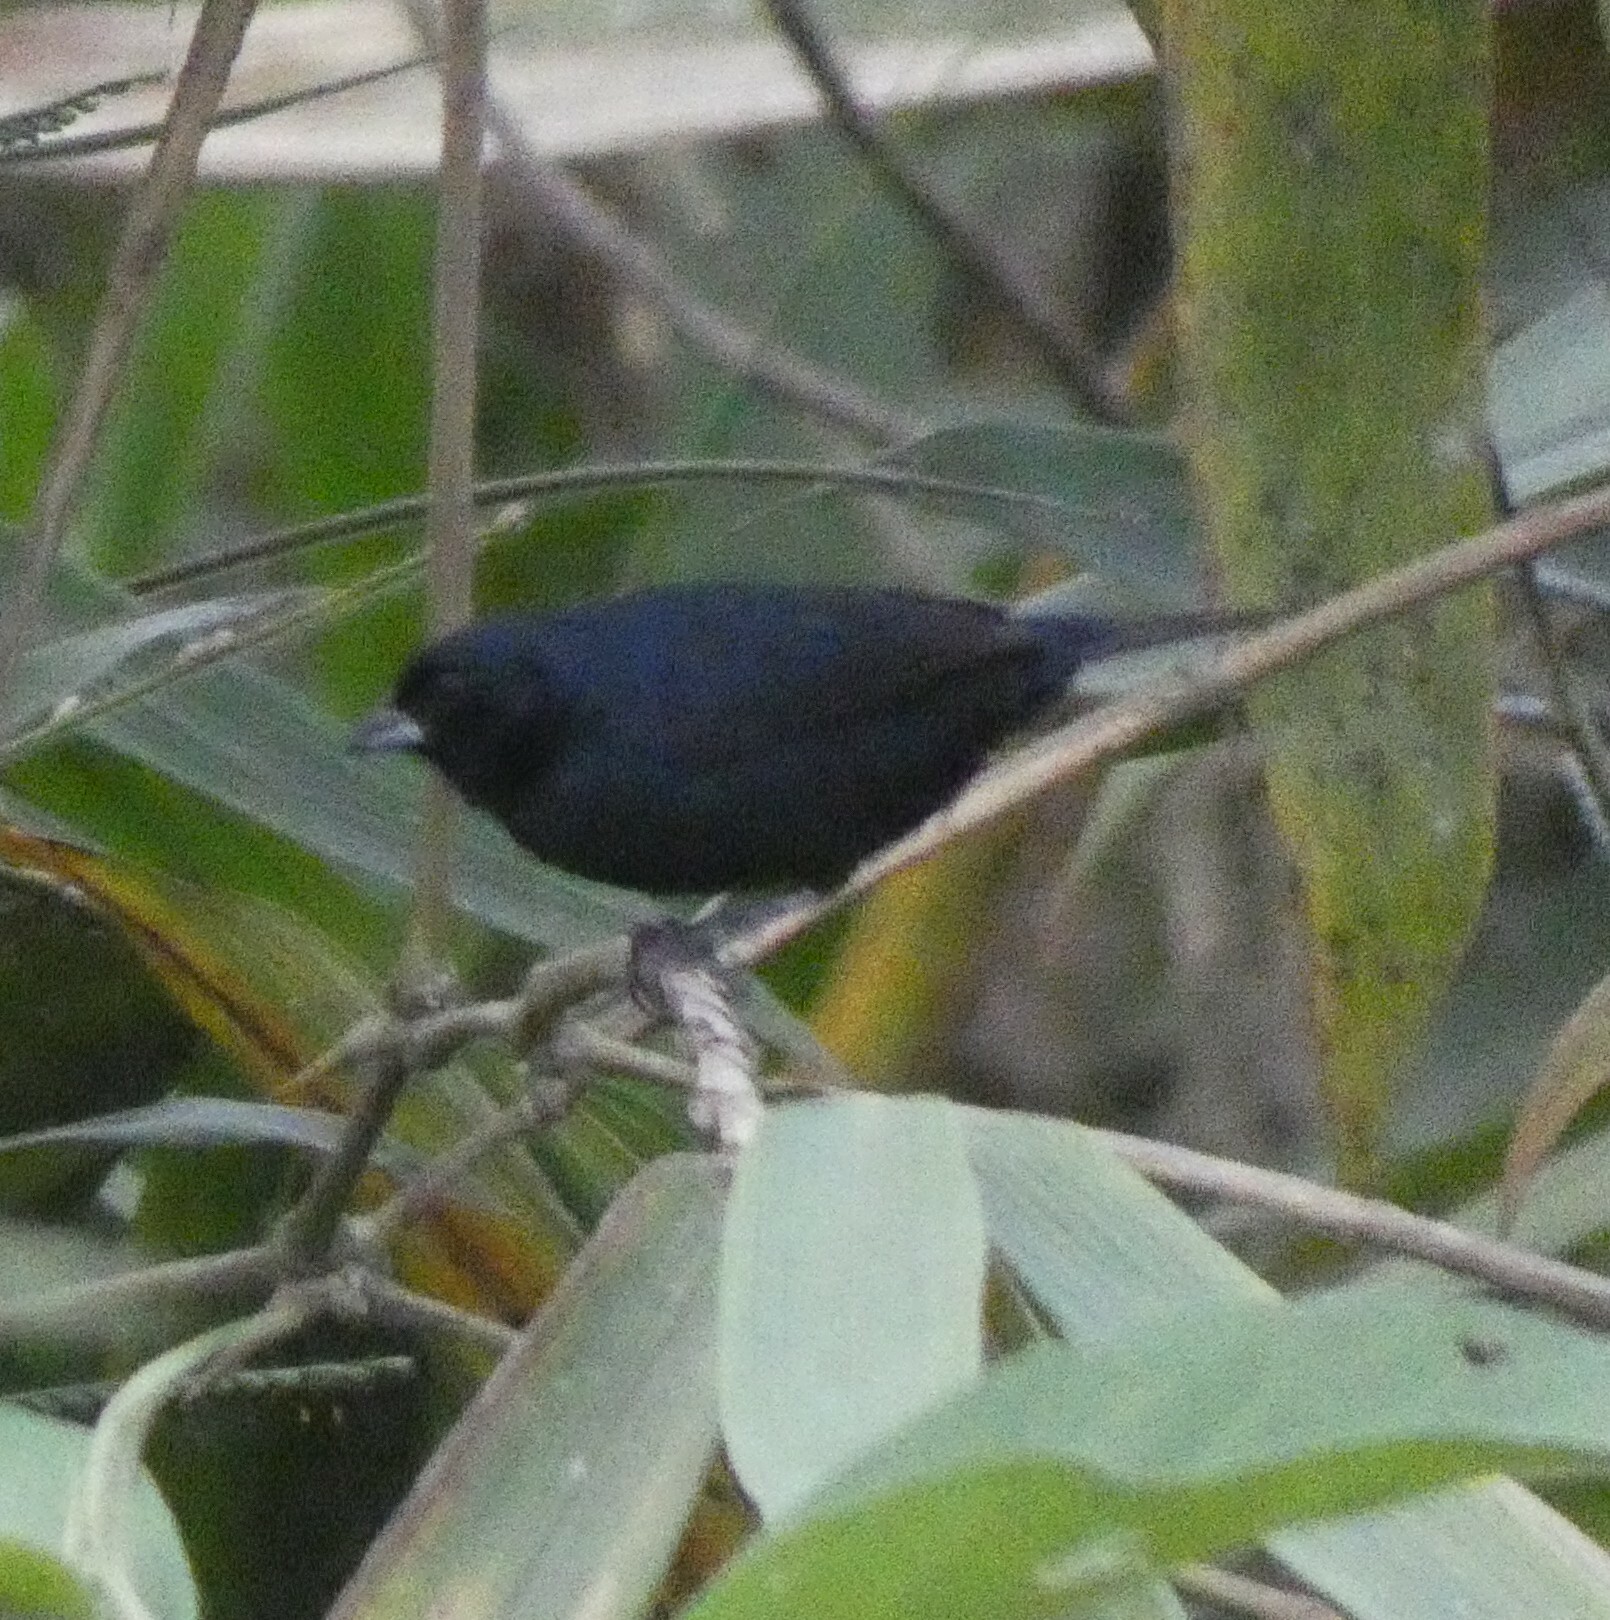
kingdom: Animalia
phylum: Chordata
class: Aves
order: Passeriformes
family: Thraupidae
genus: Volatinia
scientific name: Volatinia jacarina
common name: Blue-black grassquit
